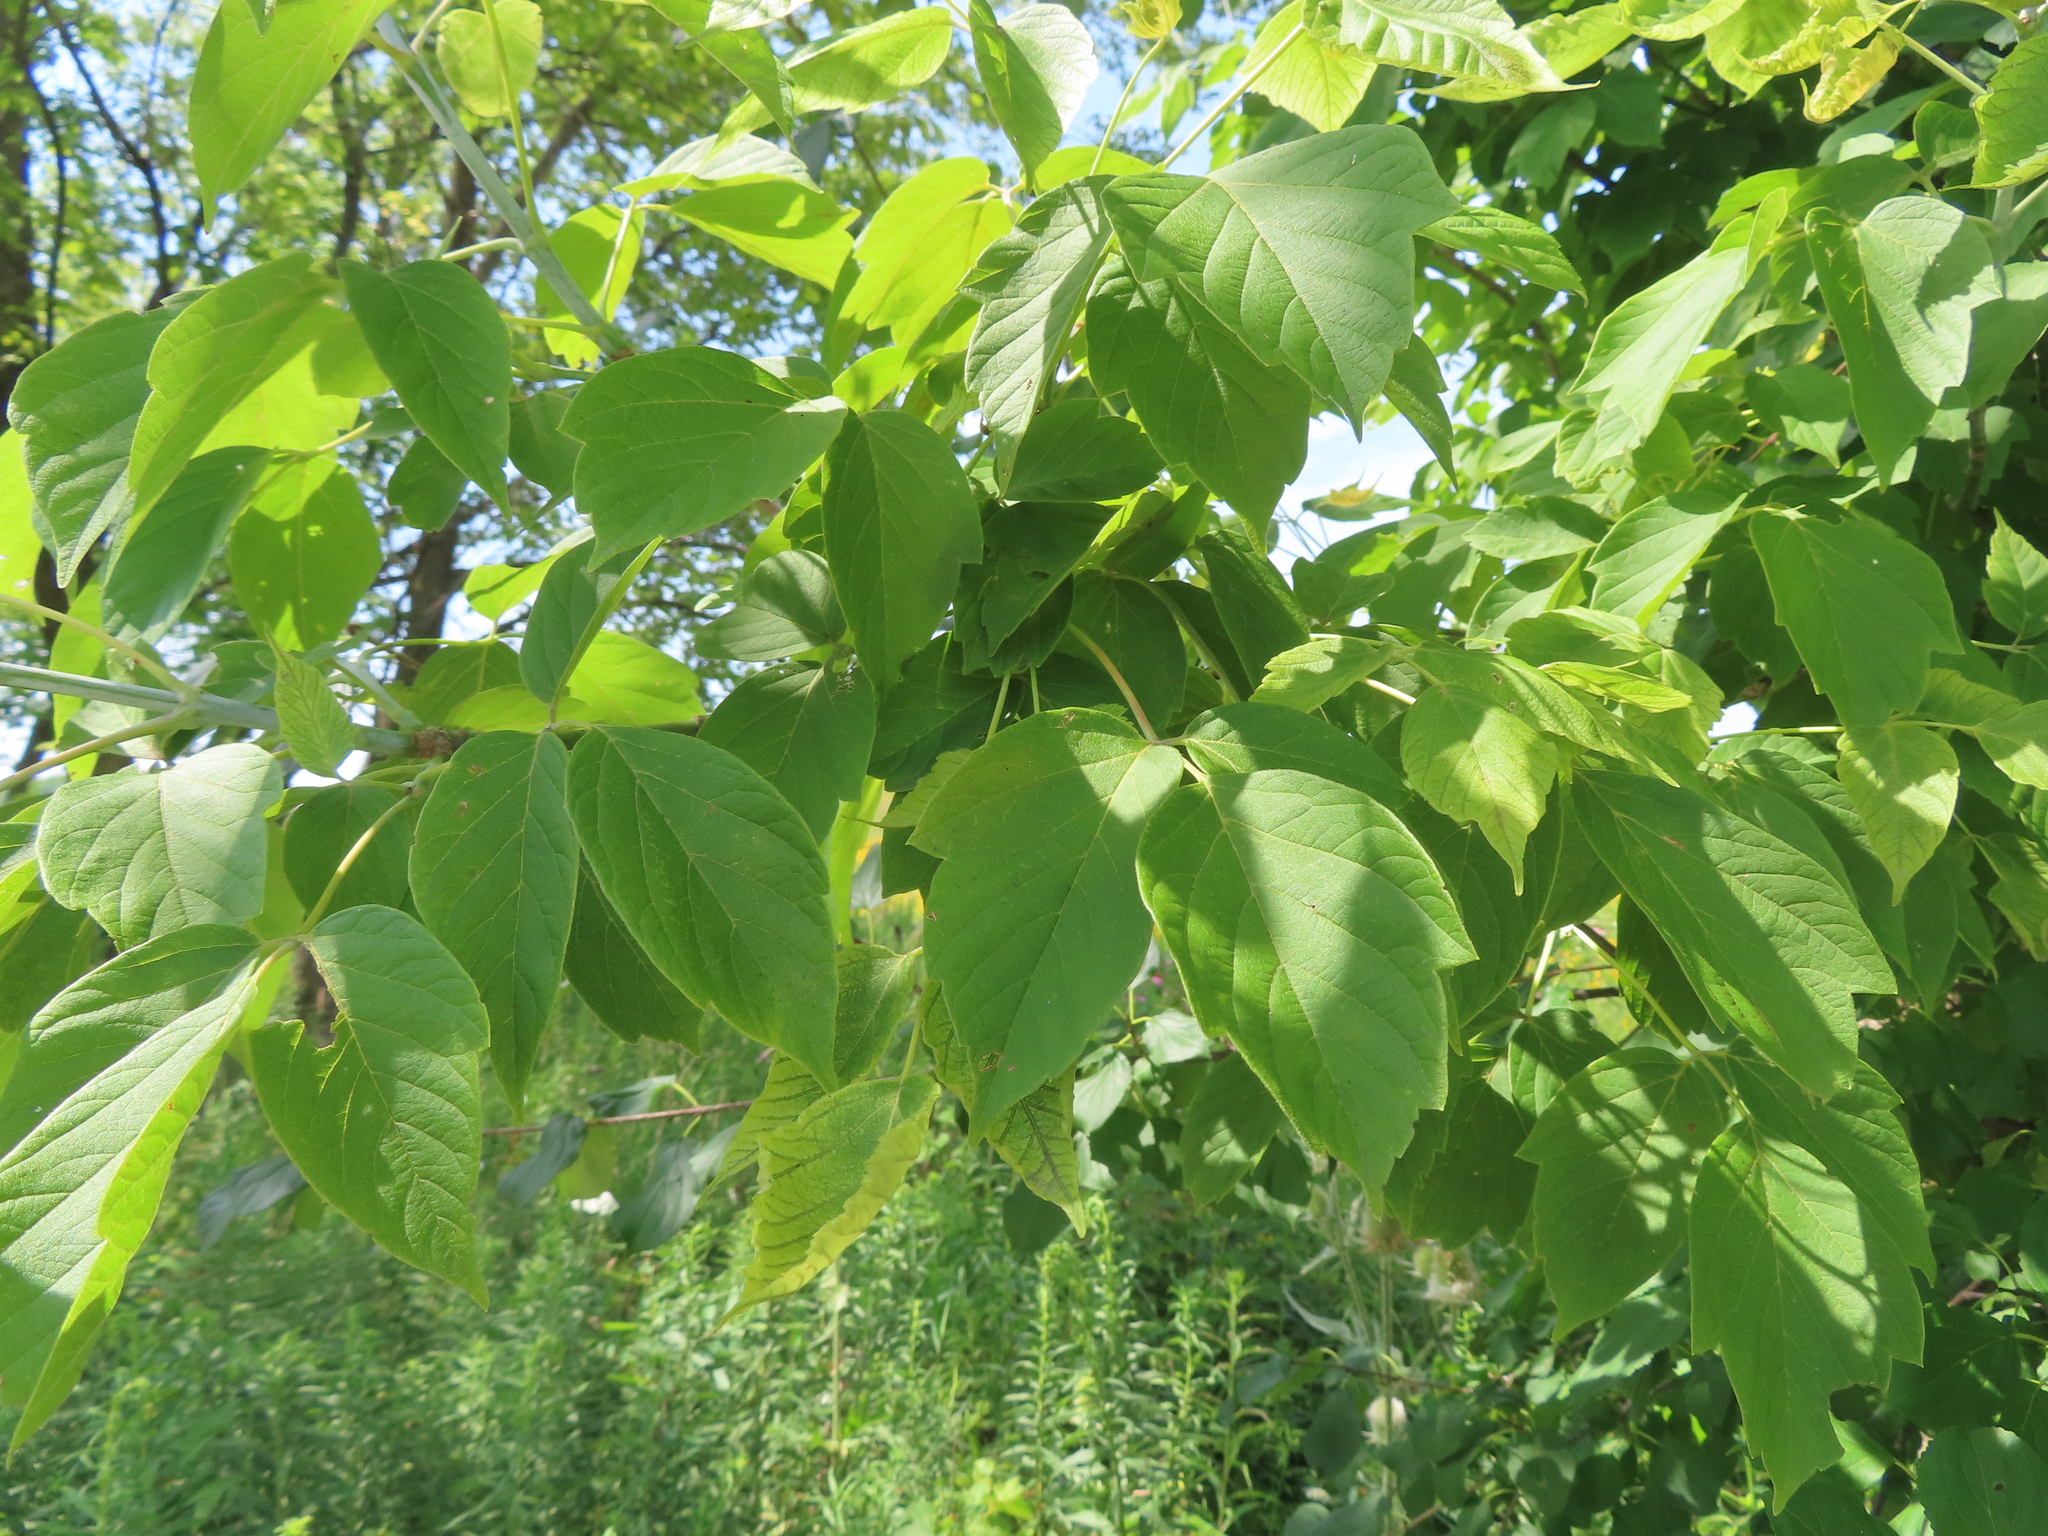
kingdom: Plantae
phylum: Tracheophyta
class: Magnoliopsida
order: Sapindales
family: Sapindaceae
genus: Acer
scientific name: Acer negundo
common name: Ashleaf maple
